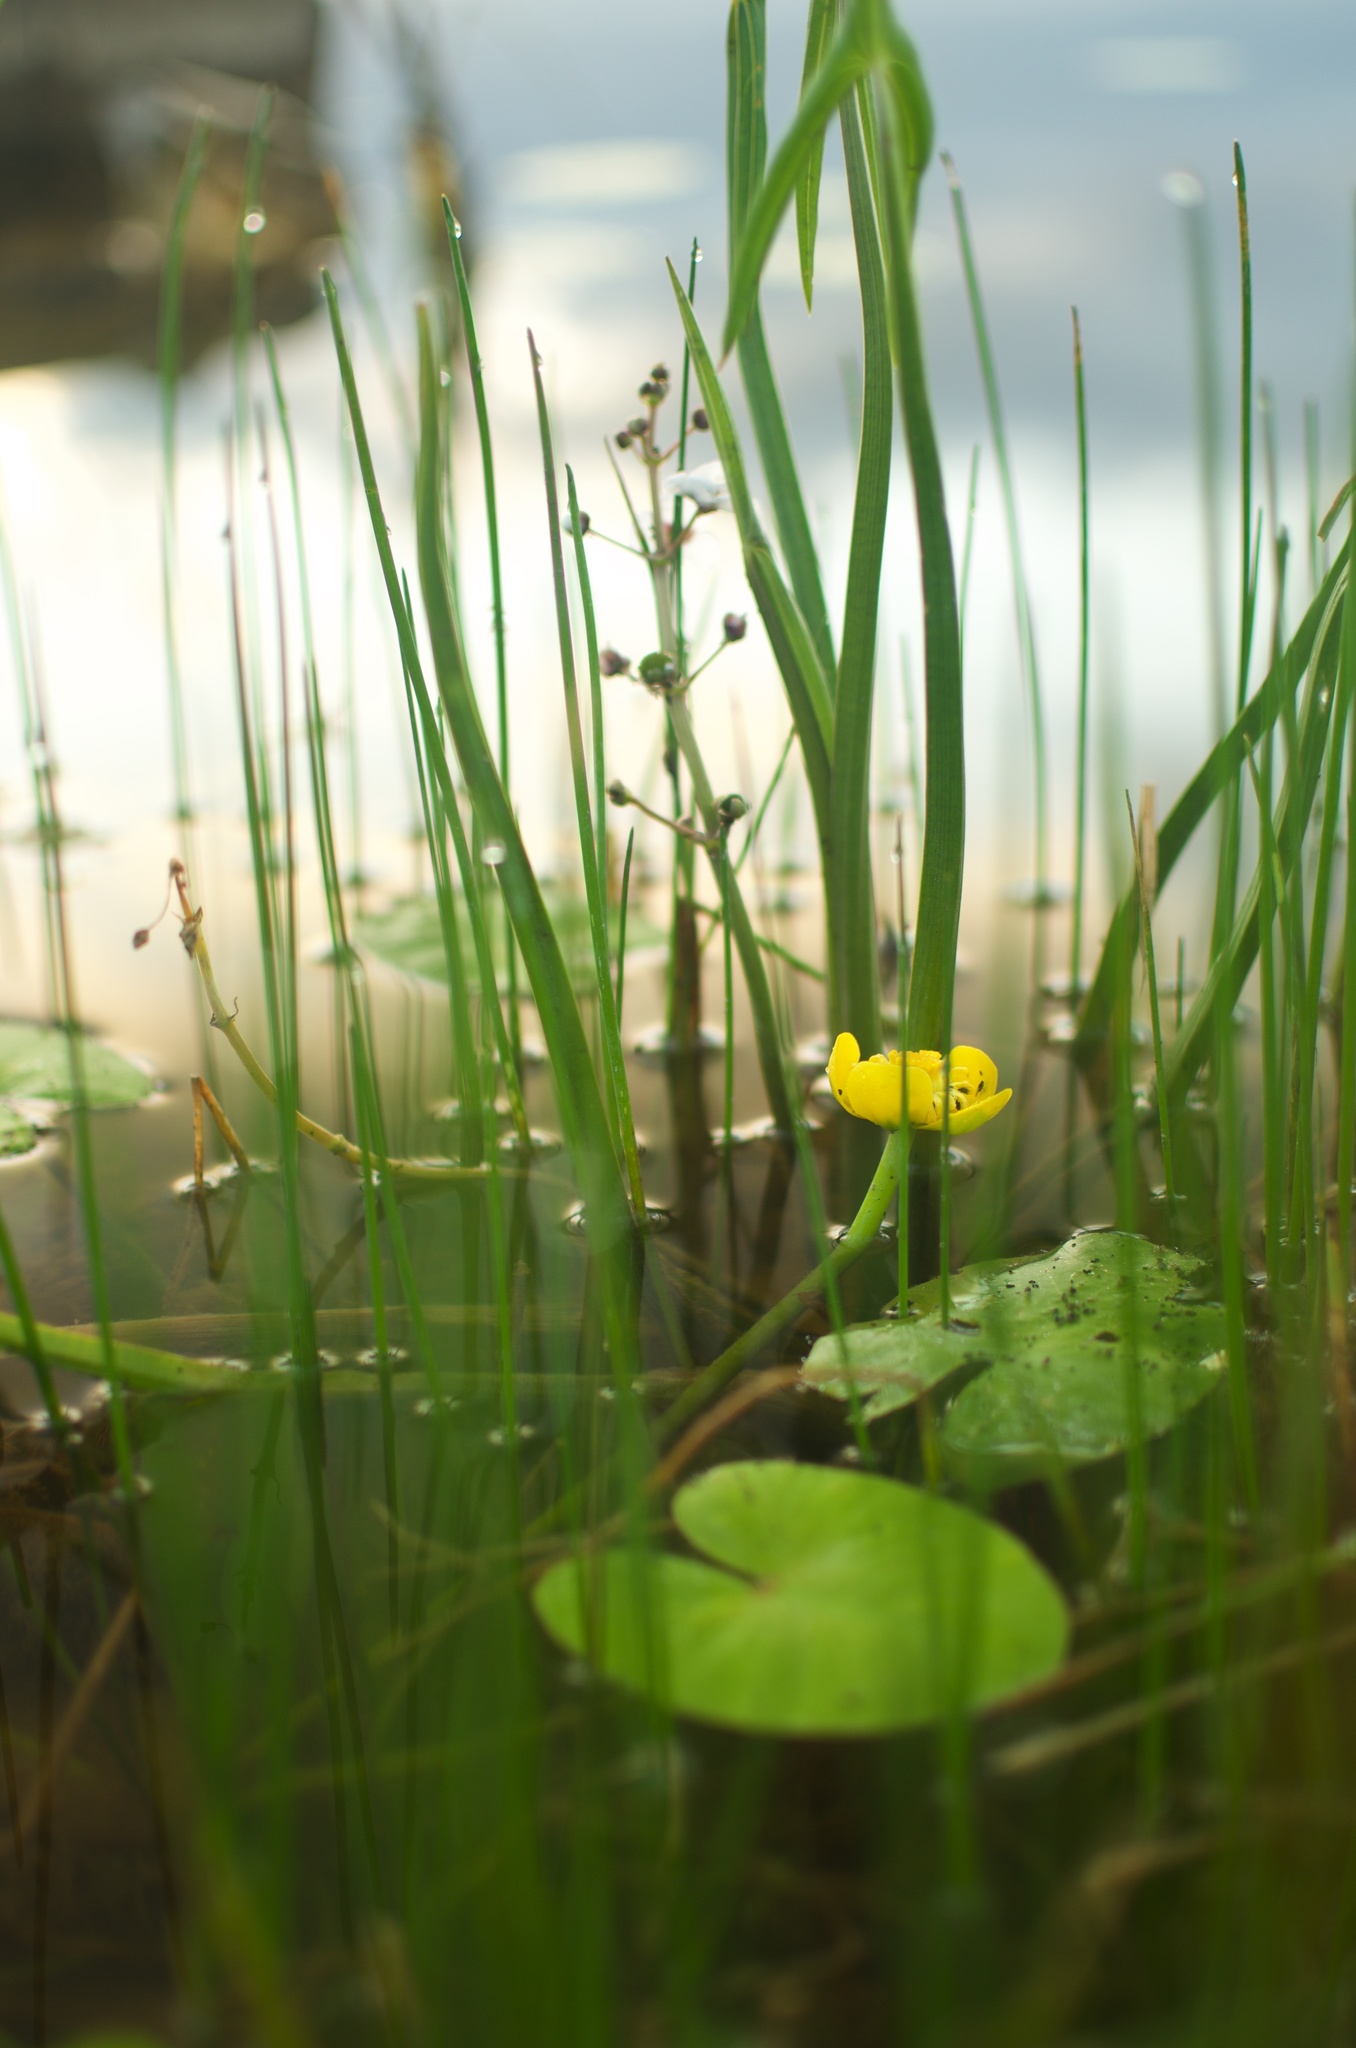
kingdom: Plantae
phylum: Tracheophyta
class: Magnoliopsida
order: Nymphaeales
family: Nymphaeaceae
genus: Nuphar
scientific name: Nuphar lutea
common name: Yellow water-lily
